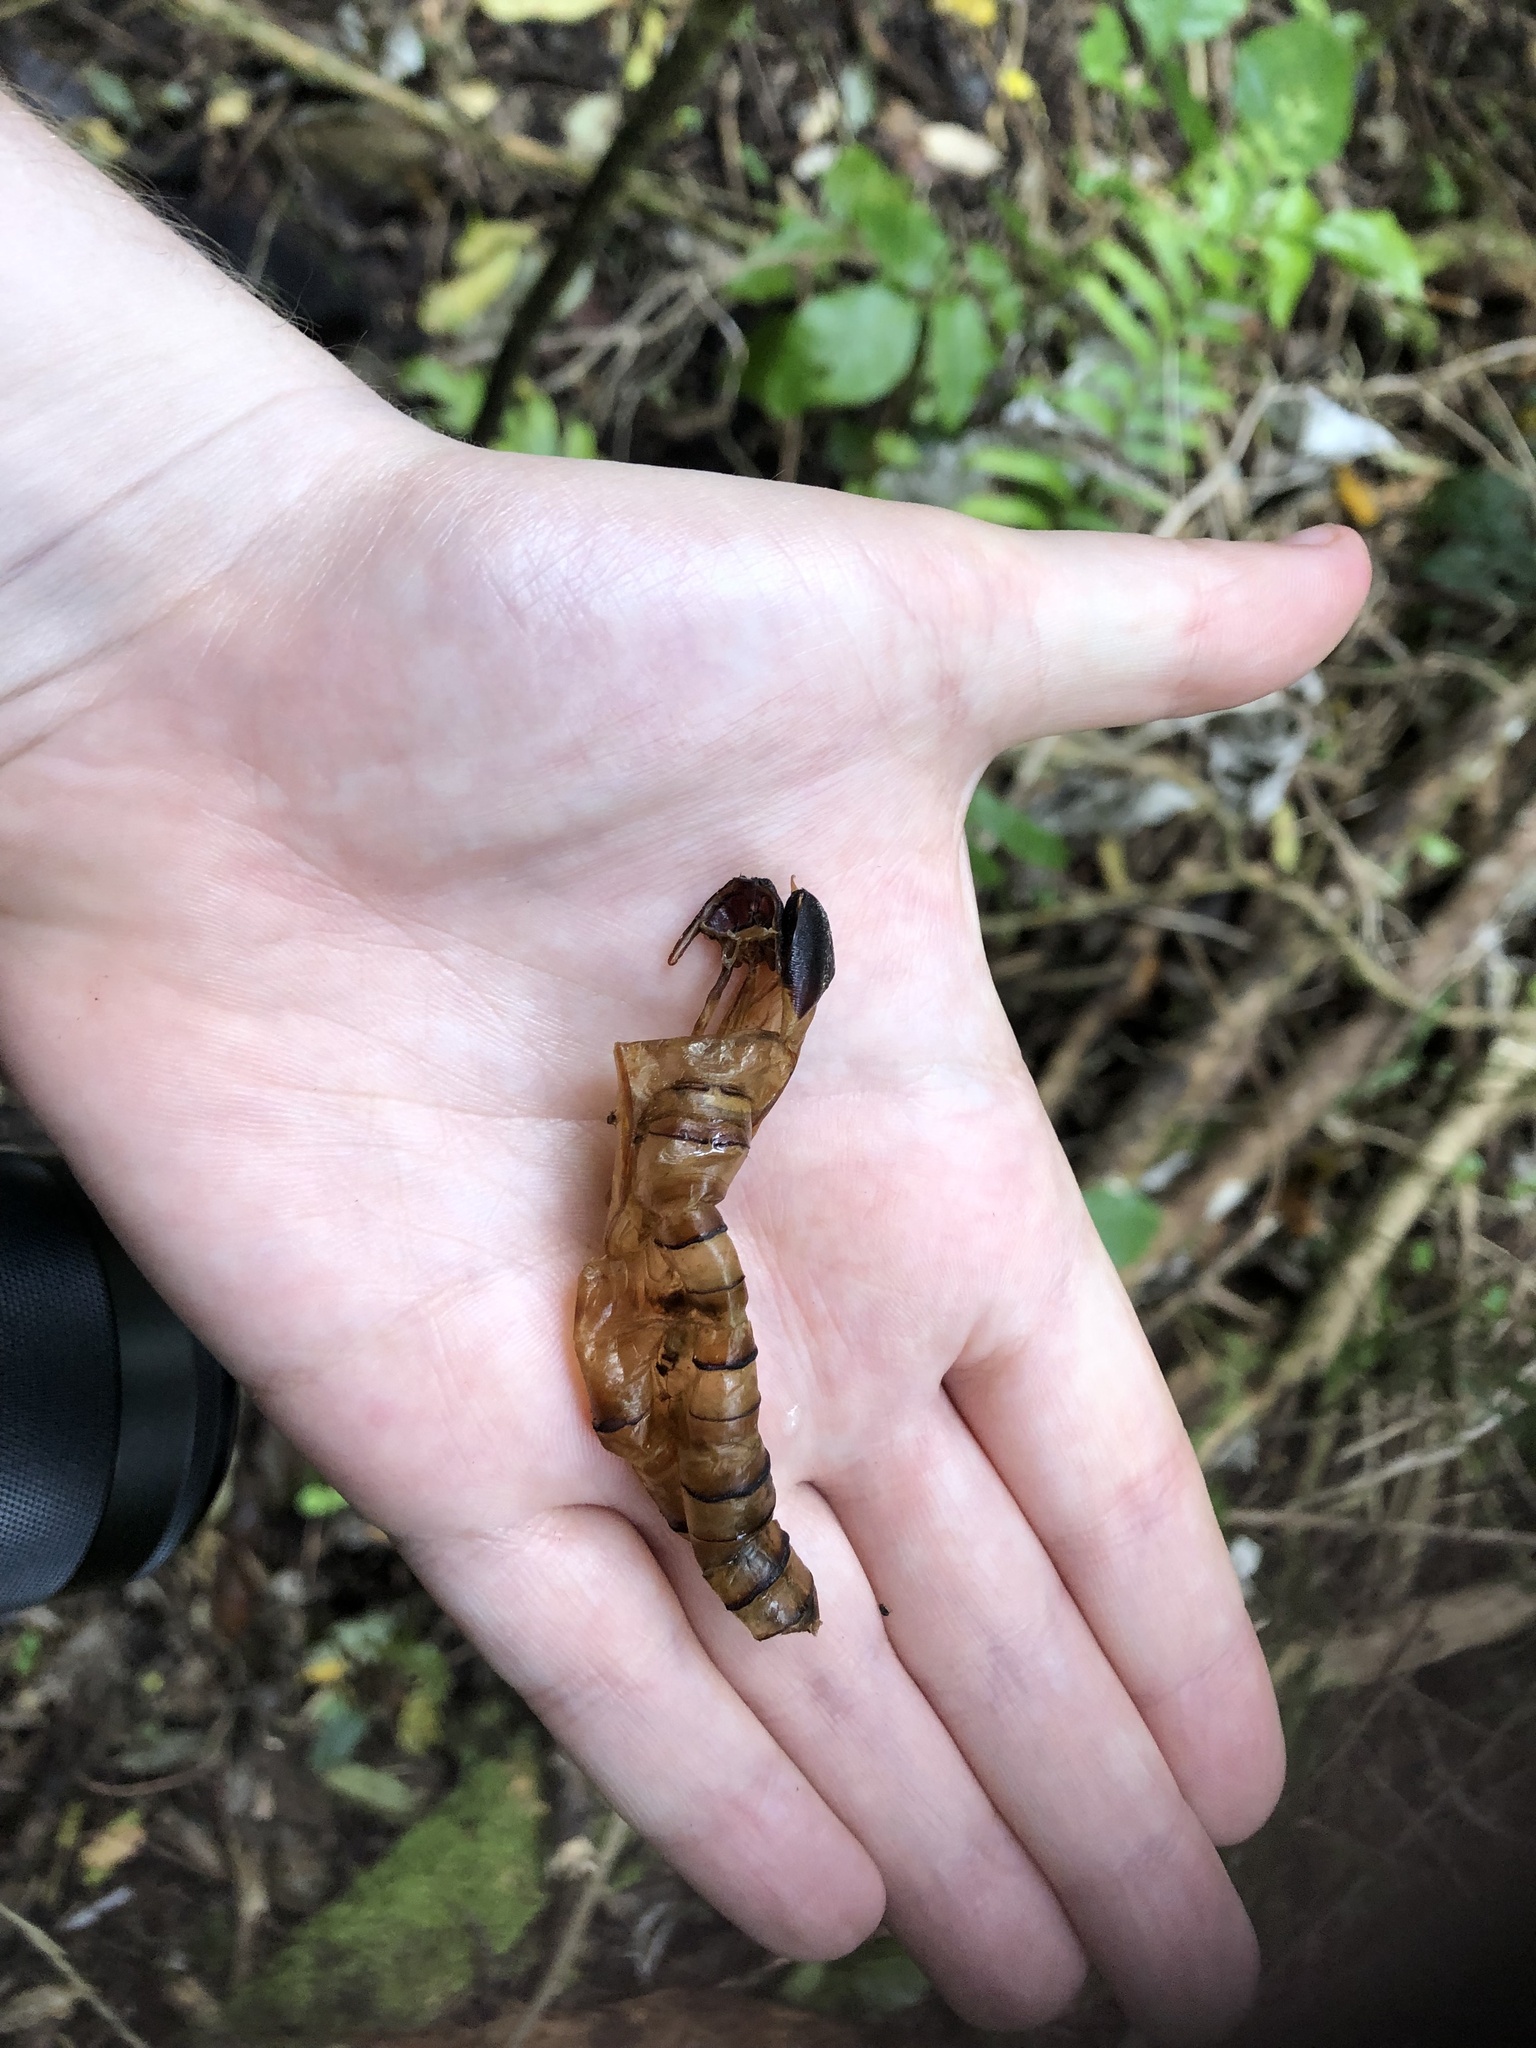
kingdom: Animalia
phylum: Arthropoda
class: Insecta
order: Lepidoptera
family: Hepialidae
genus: Aenetus
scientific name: Aenetus virescens
